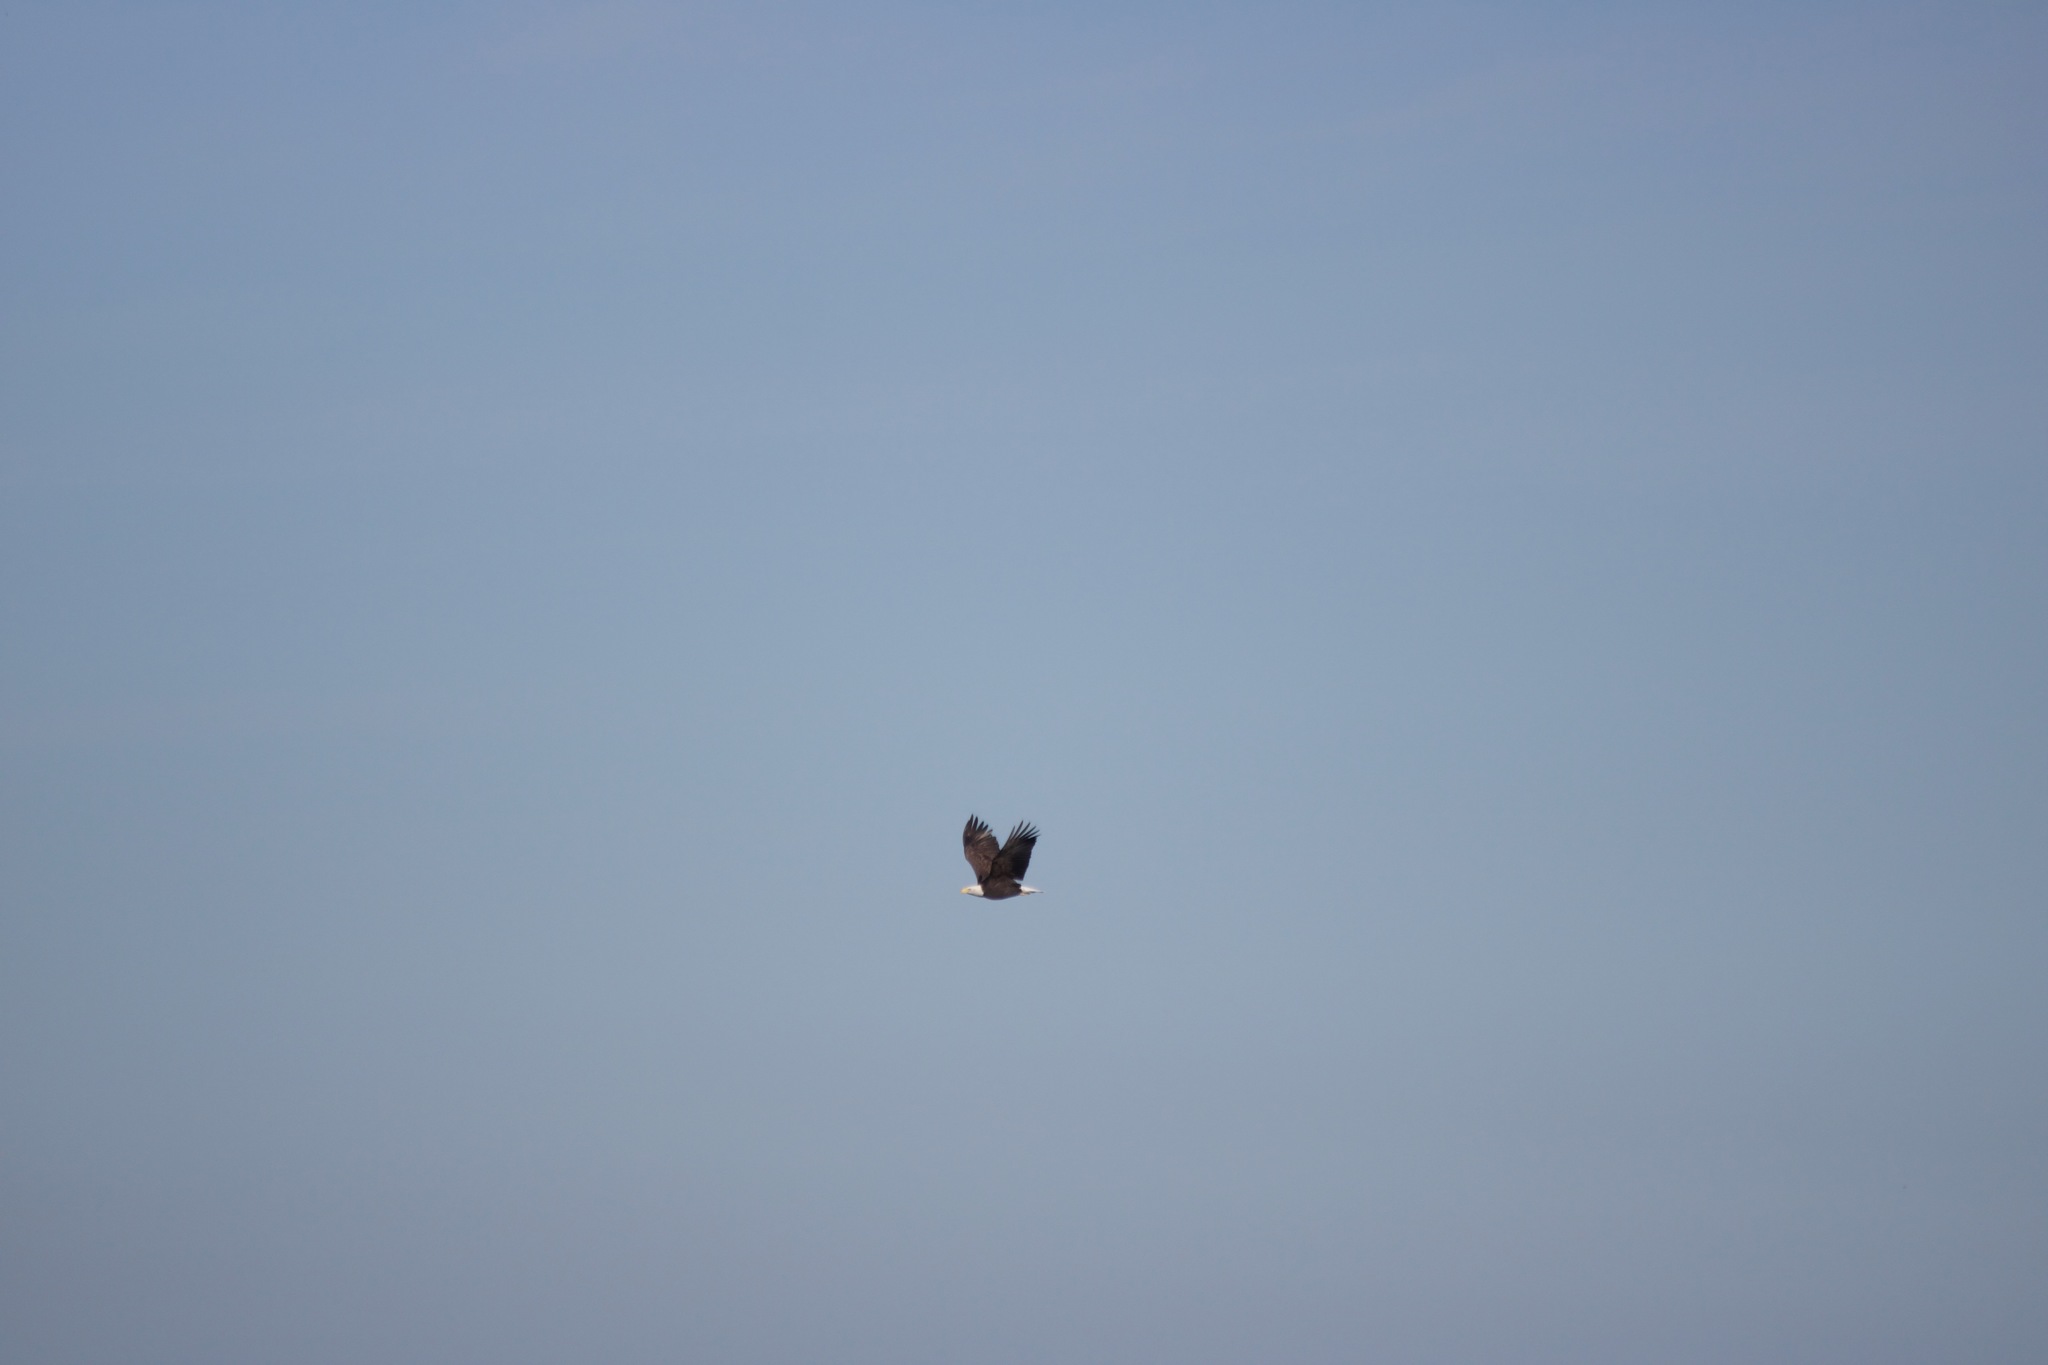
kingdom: Animalia
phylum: Chordata
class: Aves
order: Accipitriformes
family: Accipitridae
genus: Haliaeetus
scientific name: Haliaeetus leucocephalus
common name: Bald eagle
